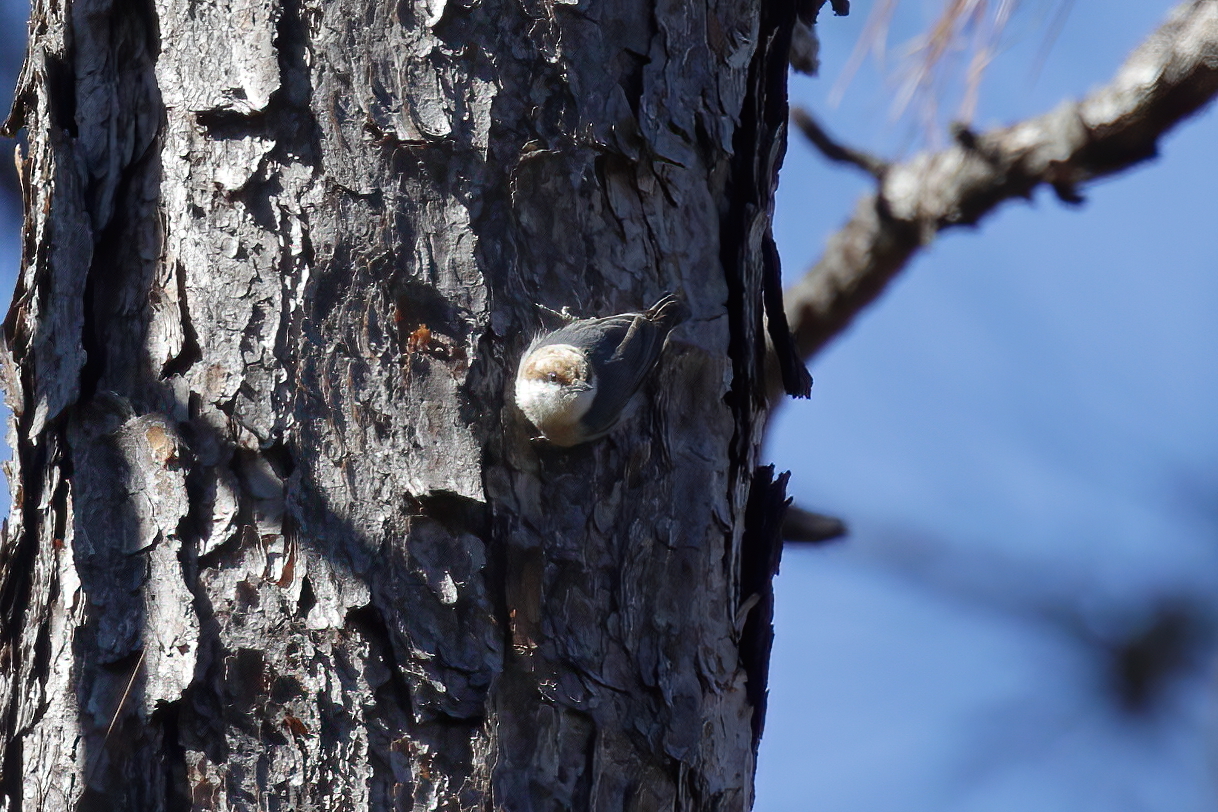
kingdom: Animalia
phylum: Chordata
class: Aves
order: Passeriformes
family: Sittidae
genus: Sitta
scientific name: Sitta pusilla
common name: Brown-headed nuthatch
